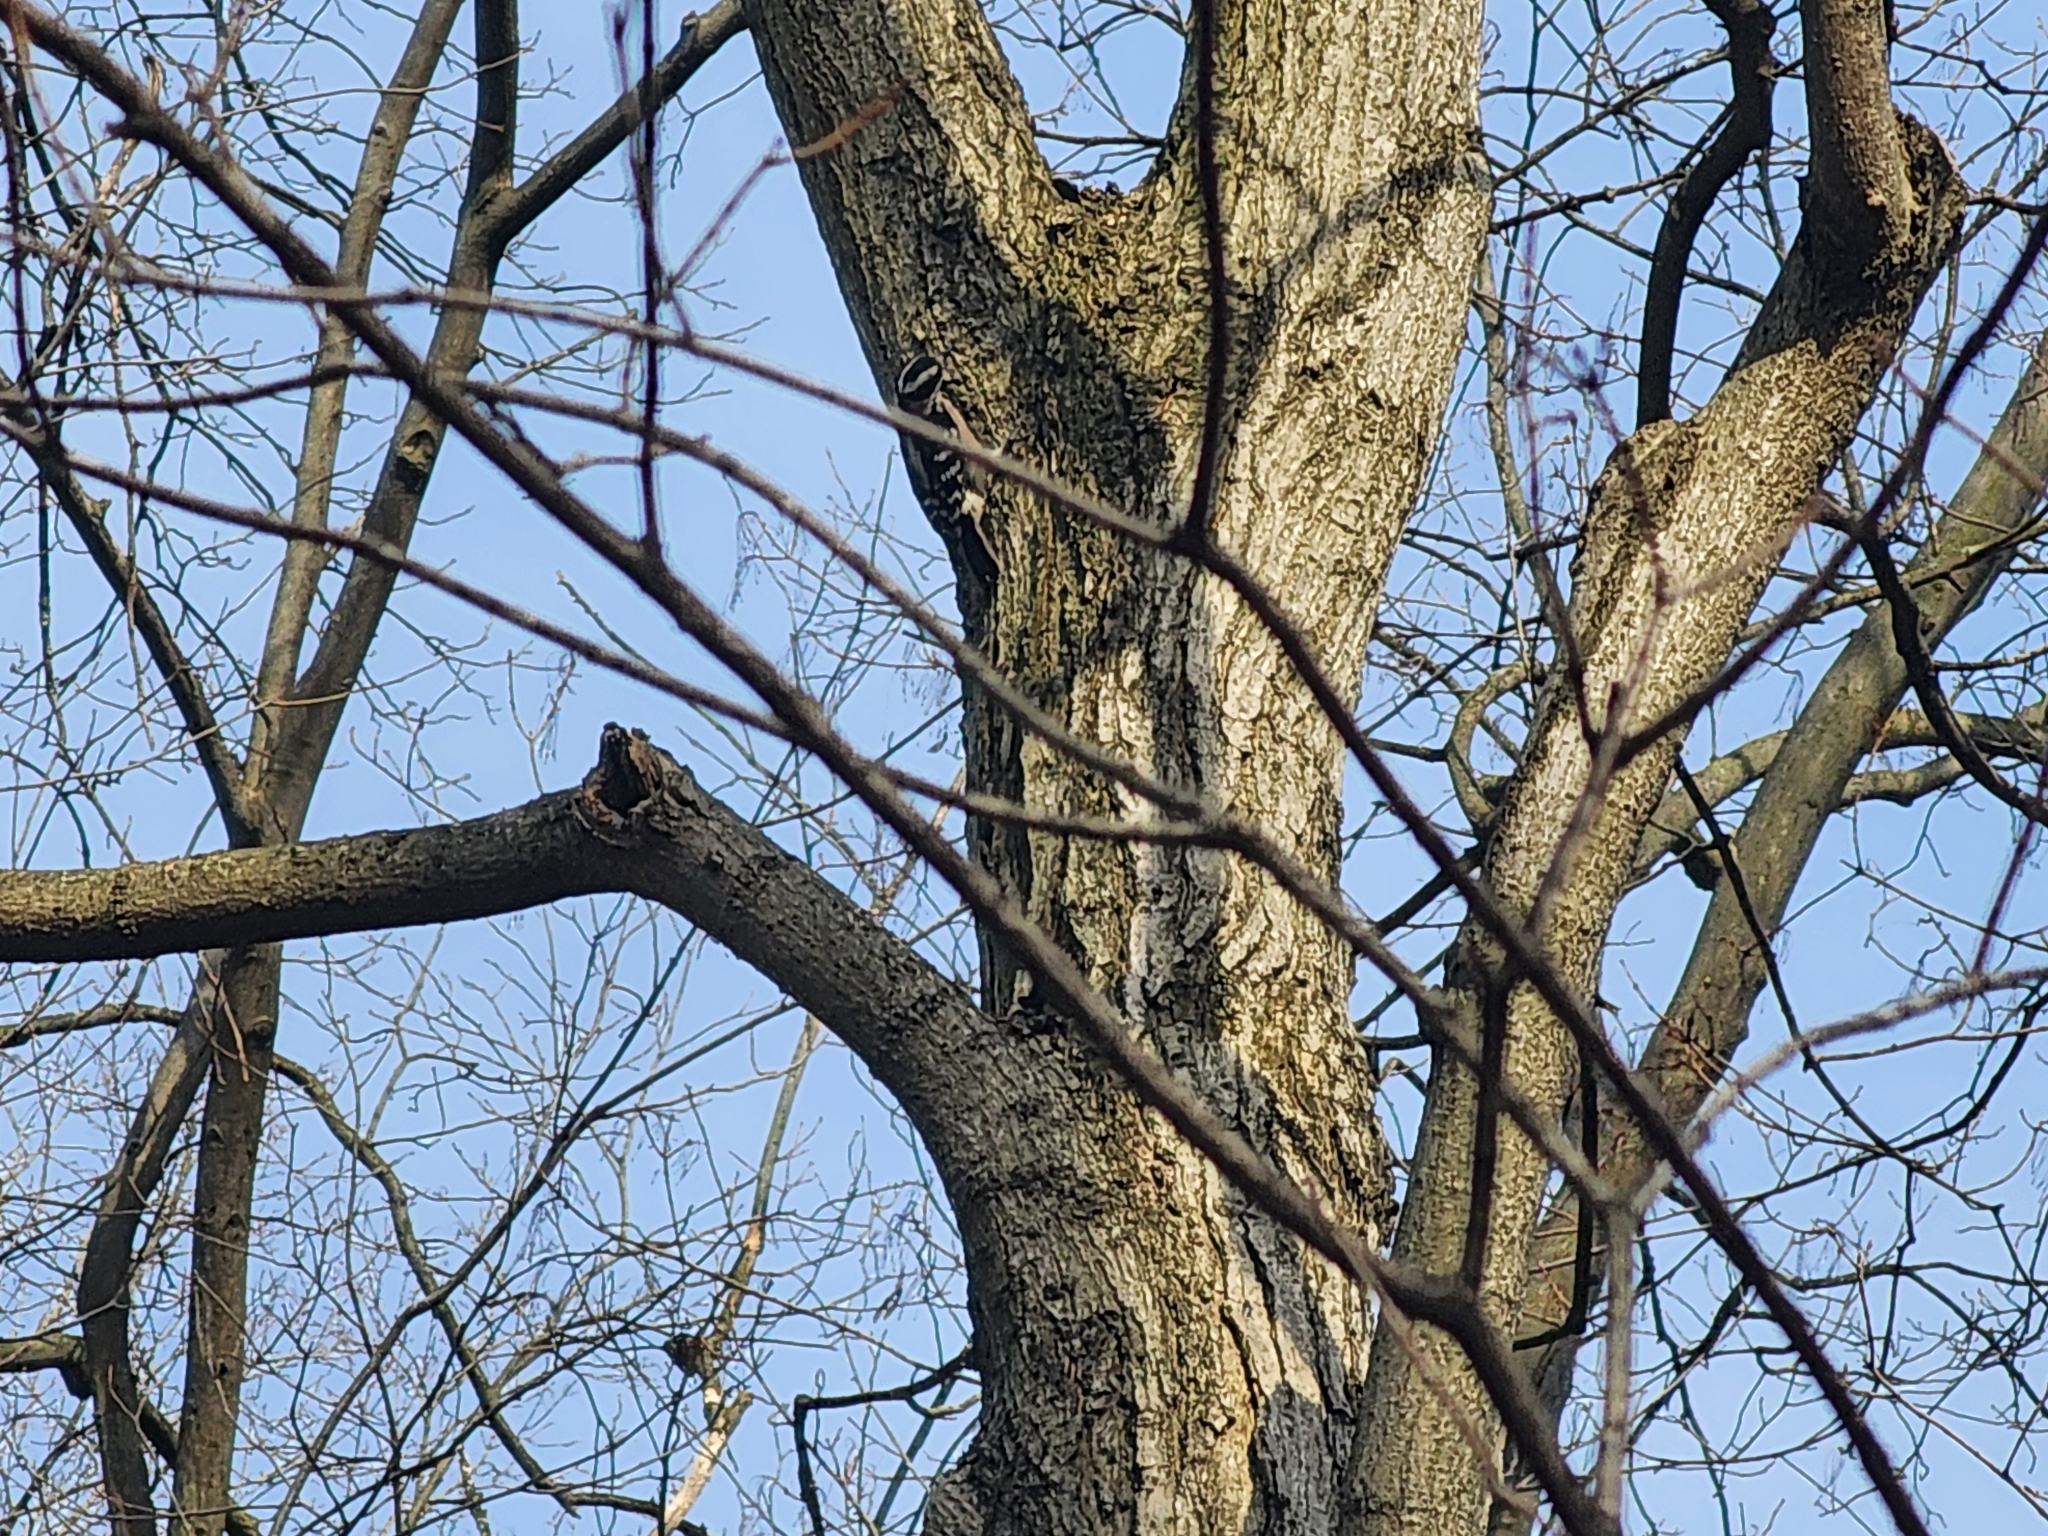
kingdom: Animalia
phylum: Chordata
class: Aves
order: Piciformes
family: Picidae
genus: Dryobates
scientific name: Dryobates pubescens
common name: Downy woodpecker
